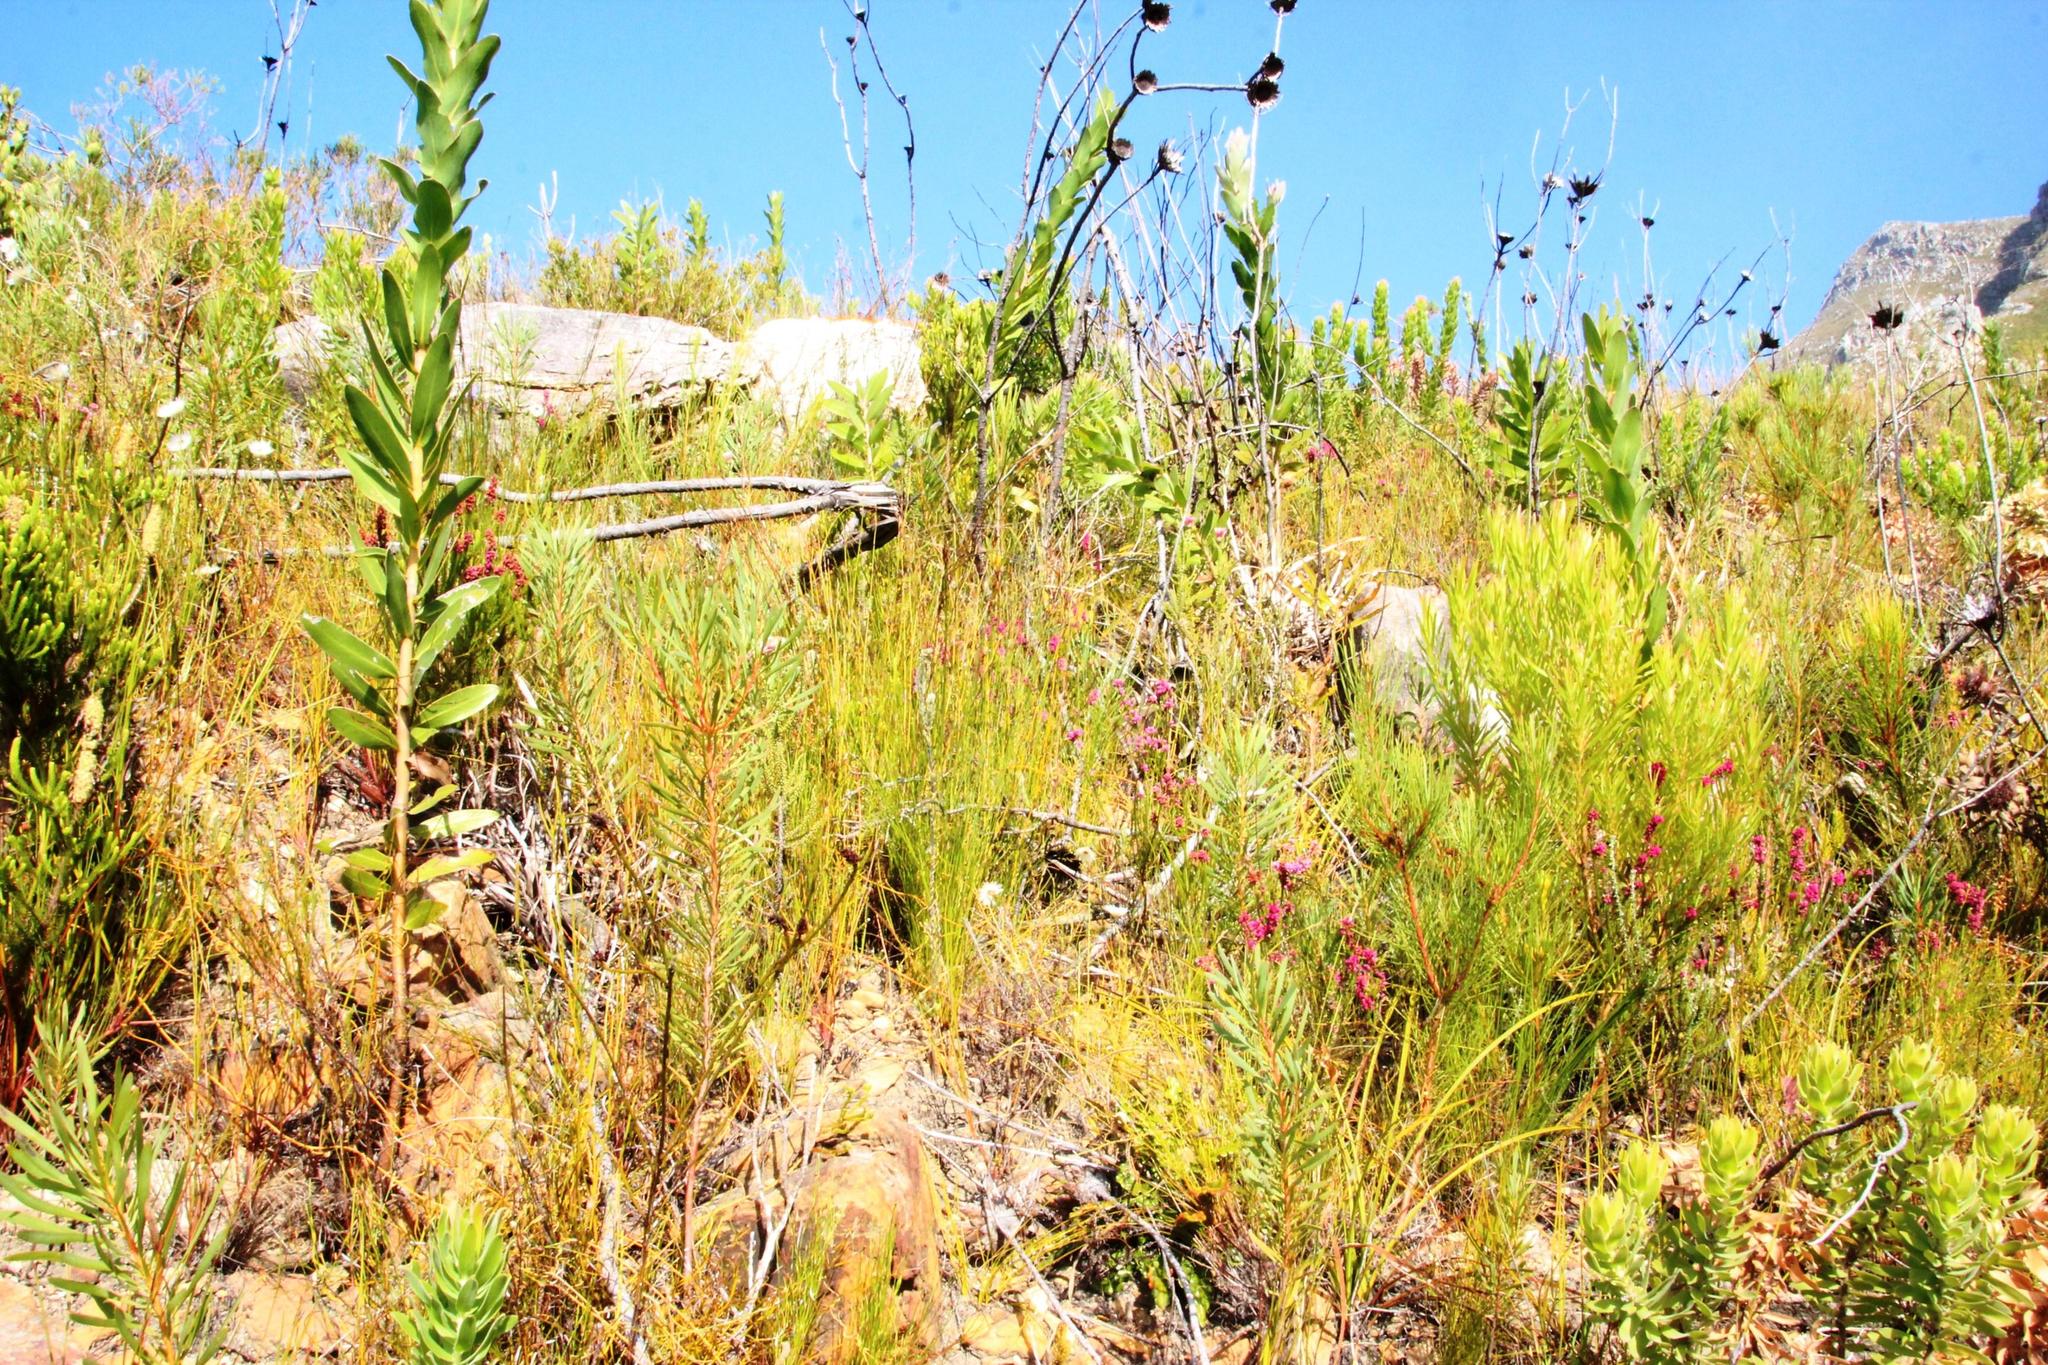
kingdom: Plantae
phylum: Tracheophyta
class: Magnoliopsida
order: Ericales
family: Ericaceae
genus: Erica
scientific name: Erica pulchella
